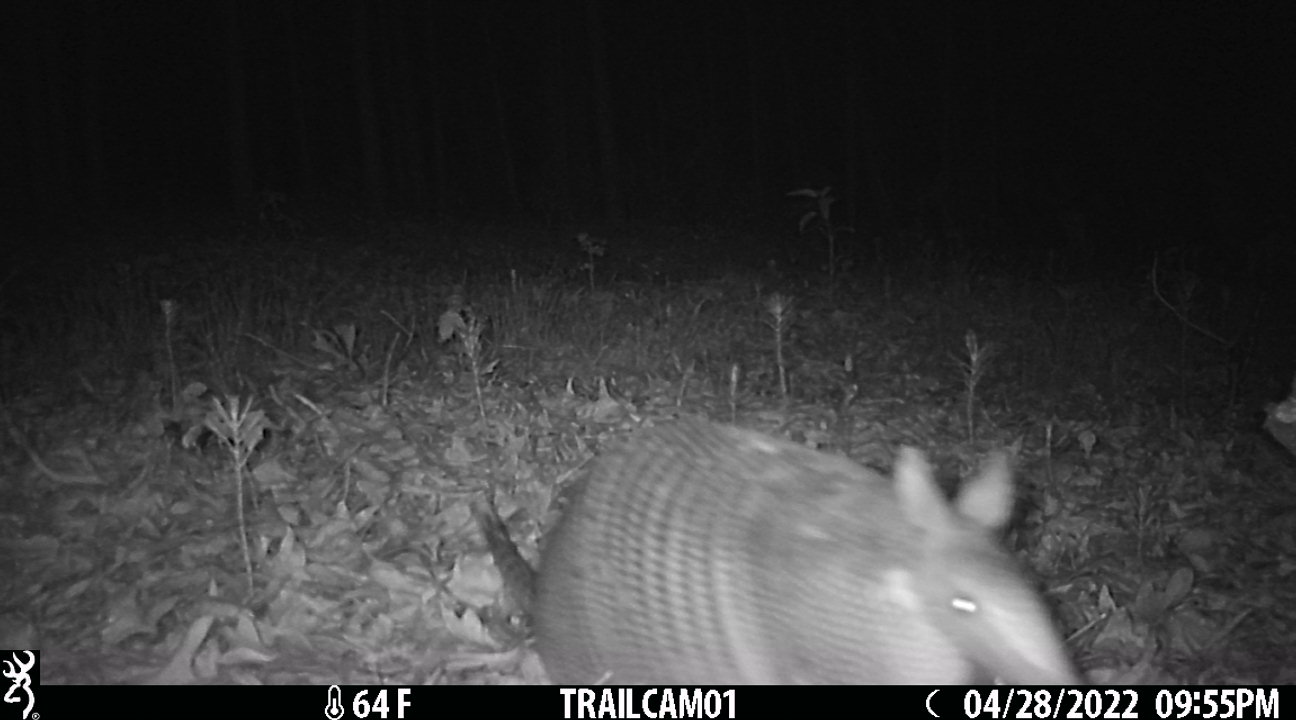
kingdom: Animalia
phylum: Chordata
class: Mammalia
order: Cingulata
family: Dasypodidae
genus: Dasypus
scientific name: Dasypus novemcinctus
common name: Nine-banded armadillo
